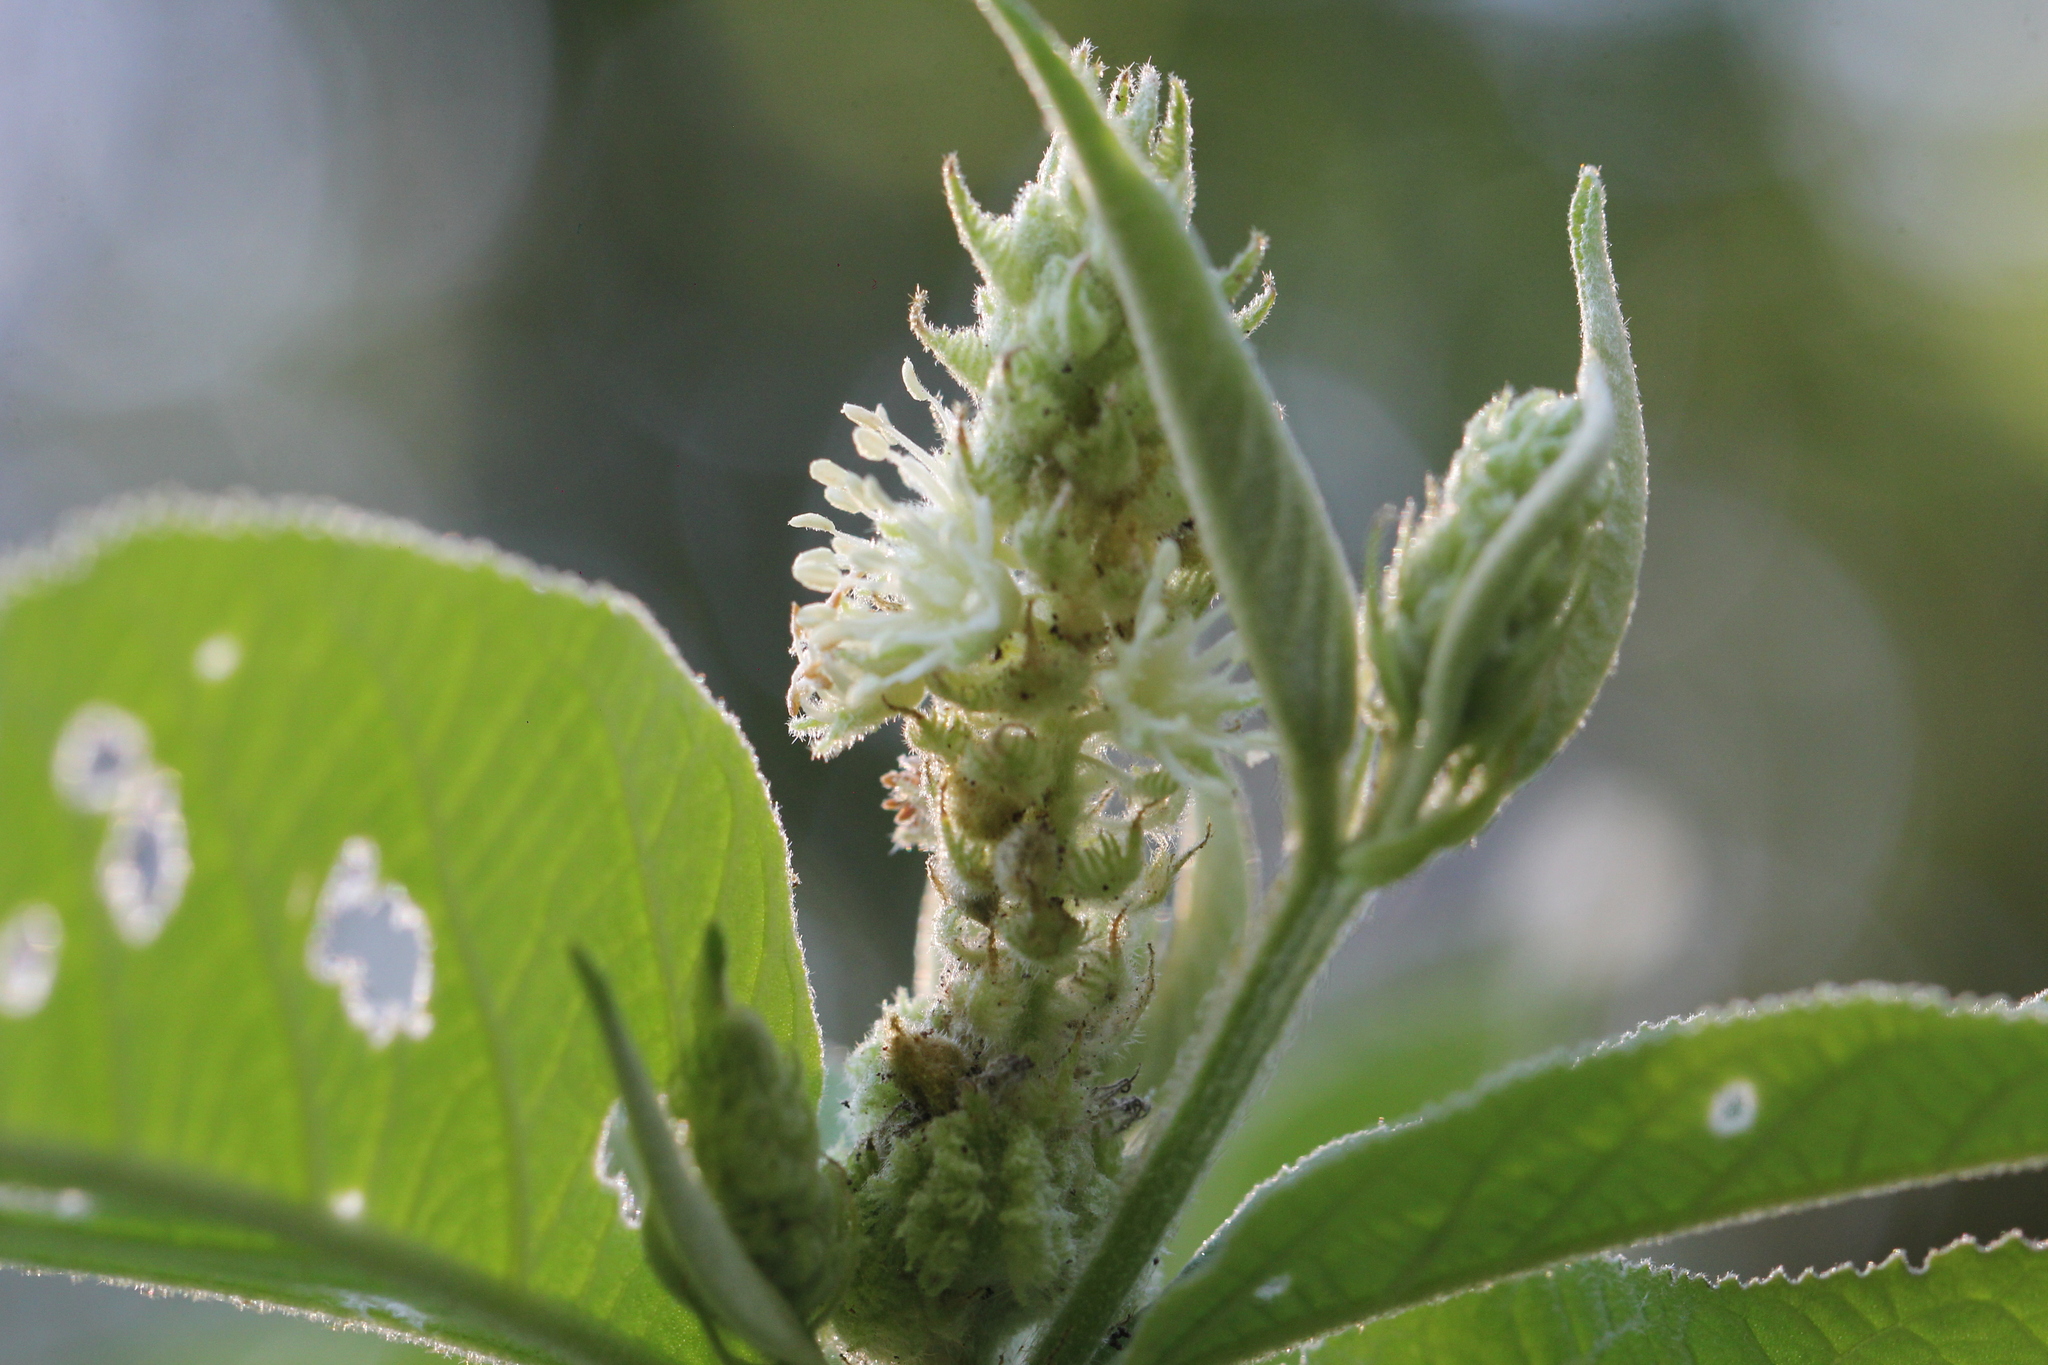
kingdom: Plantae
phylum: Tracheophyta
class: Magnoliopsida
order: Malpighiales
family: Euphorbiaceae
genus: Croton
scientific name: Croton triqueter
